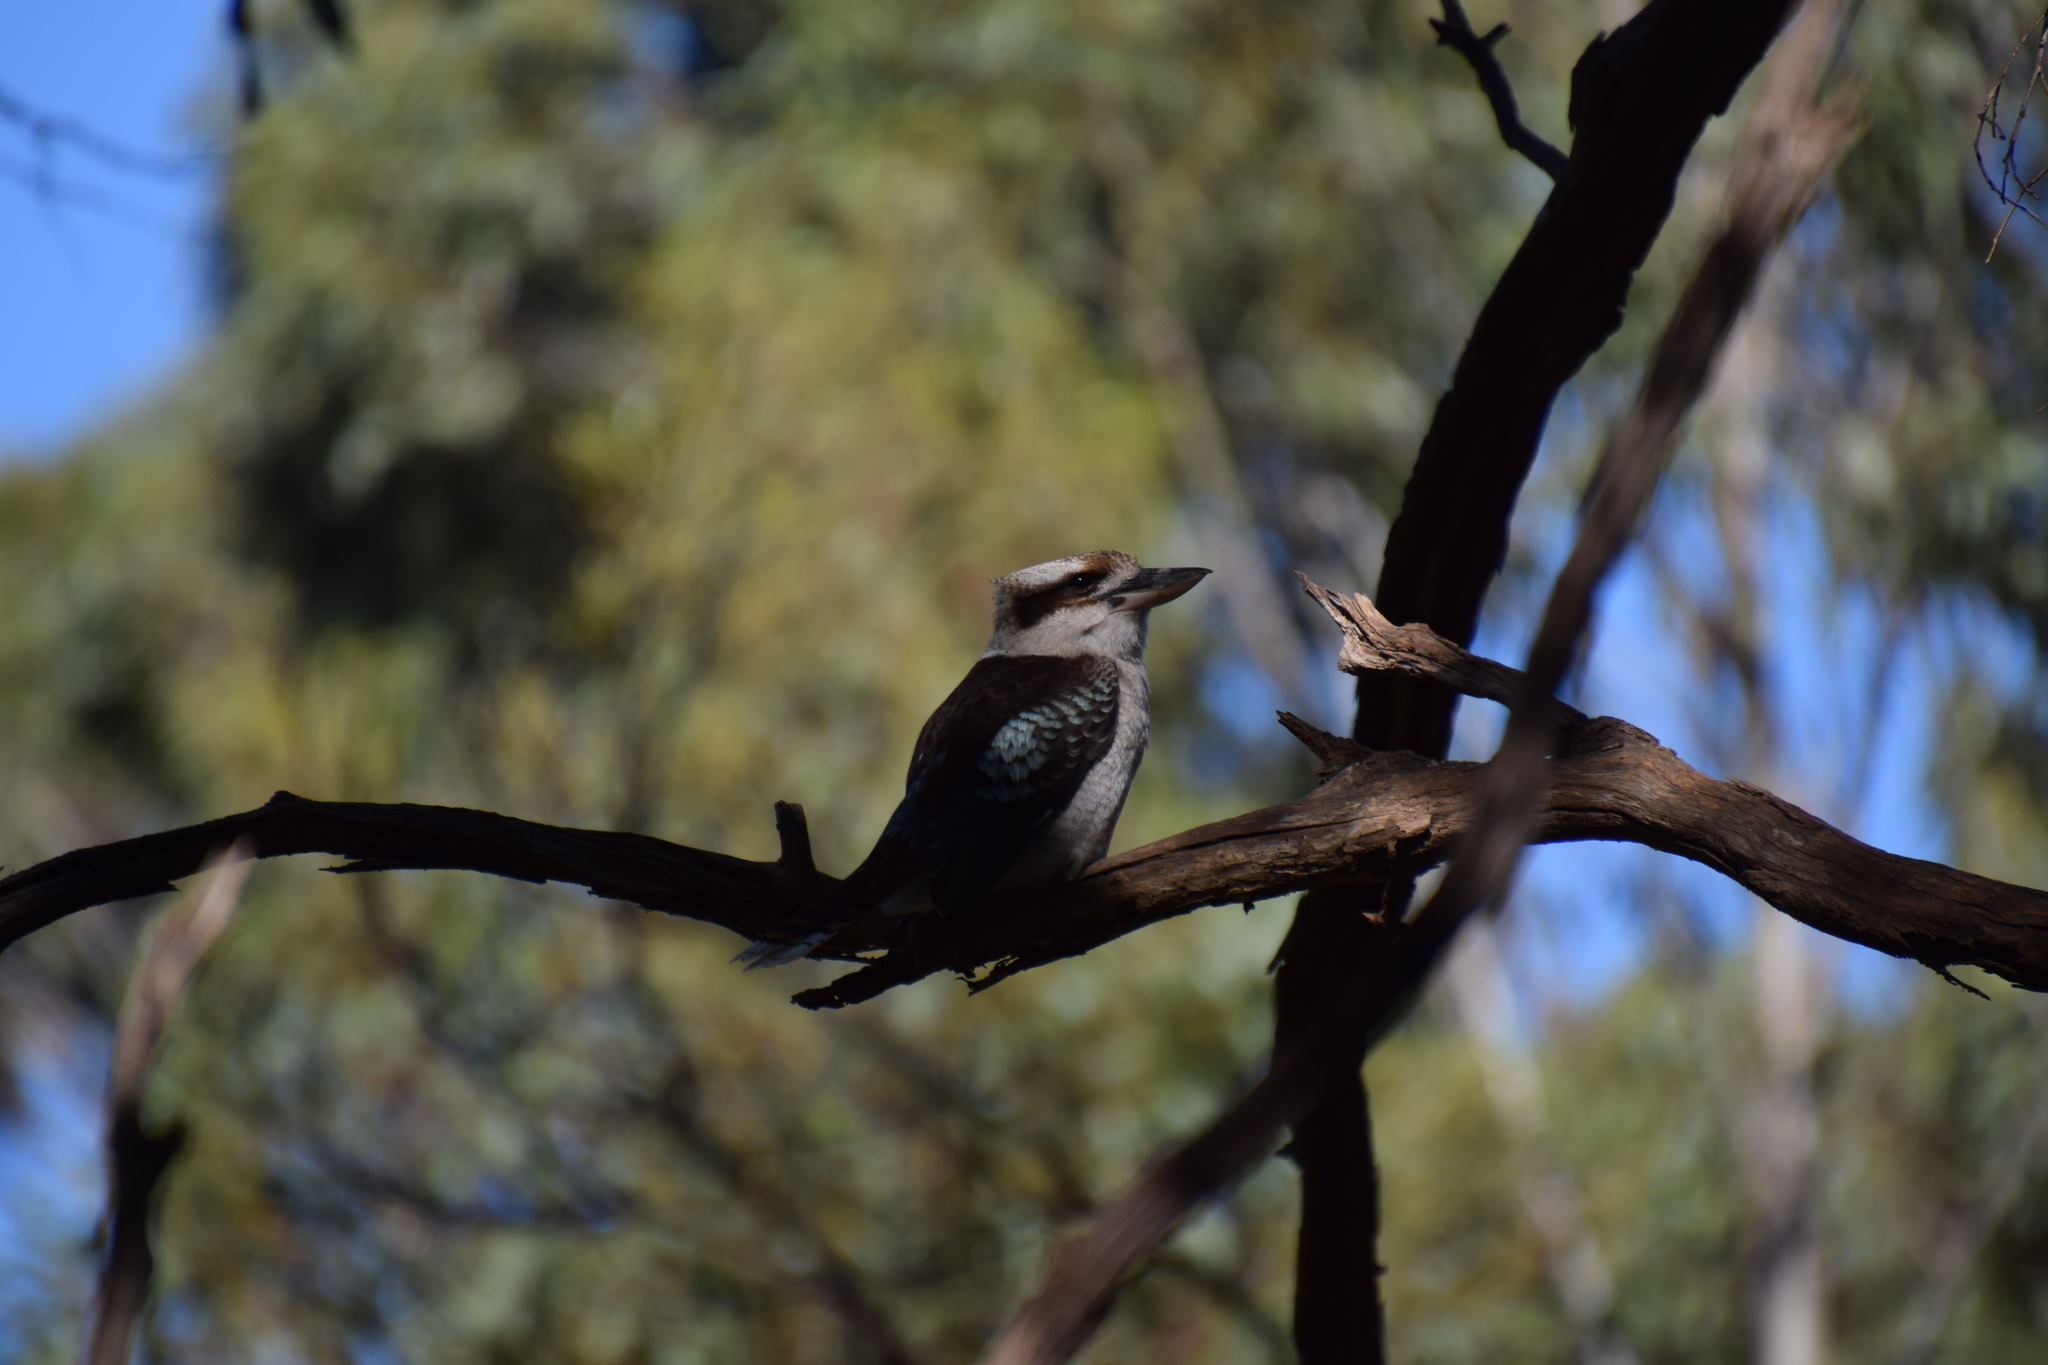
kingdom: Animalia
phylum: Chordata
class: Aves
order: Coraciiformes
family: Alcedinidae
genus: Dacelo
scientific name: Dacelo novaeguineae
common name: Laughing kookaburra
